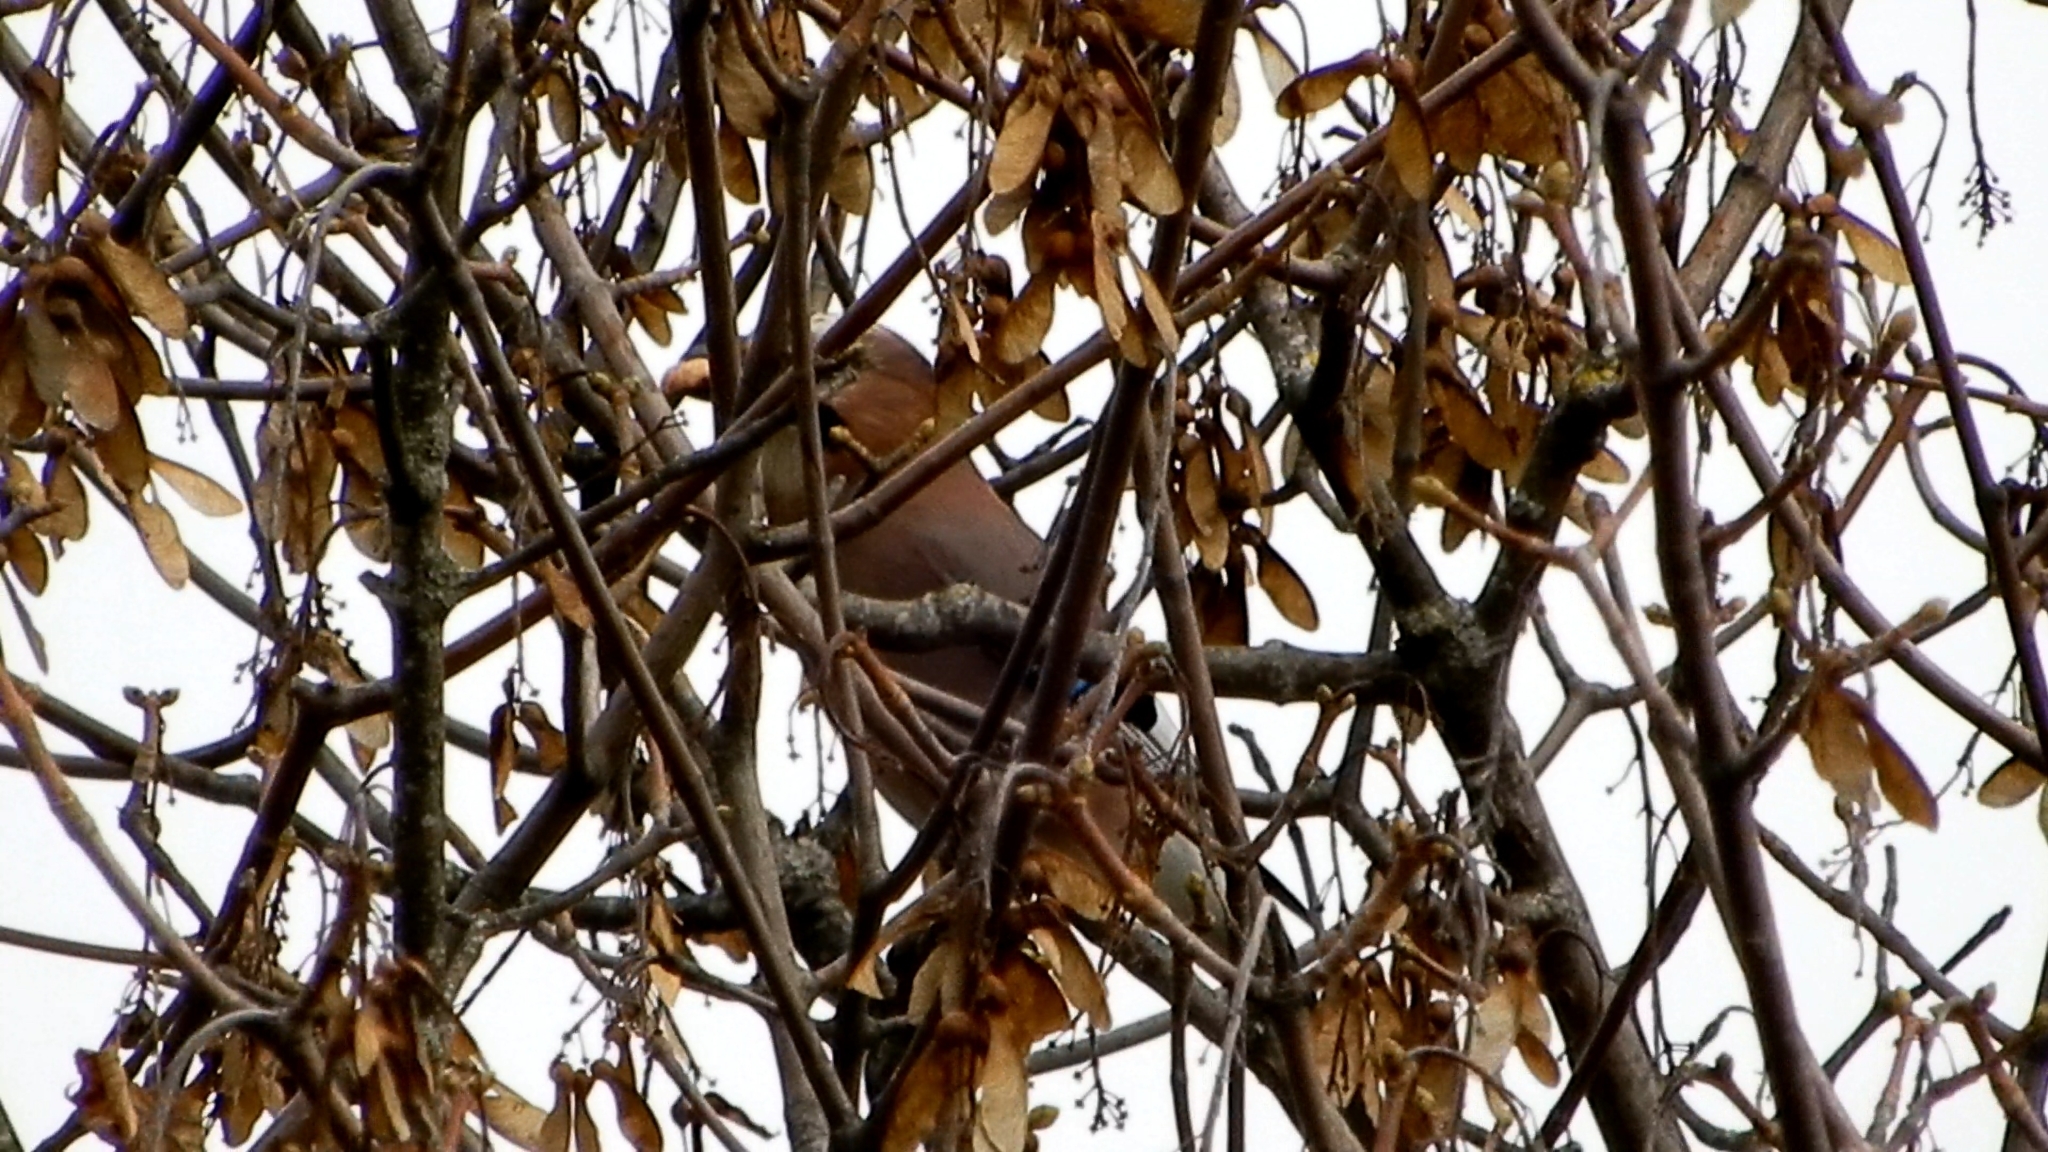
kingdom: Animalia
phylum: Chordata
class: Aves
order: Passeriformes
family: Corvidae
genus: Garrulus
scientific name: Garrulus glandarius
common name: Eurasian jay
